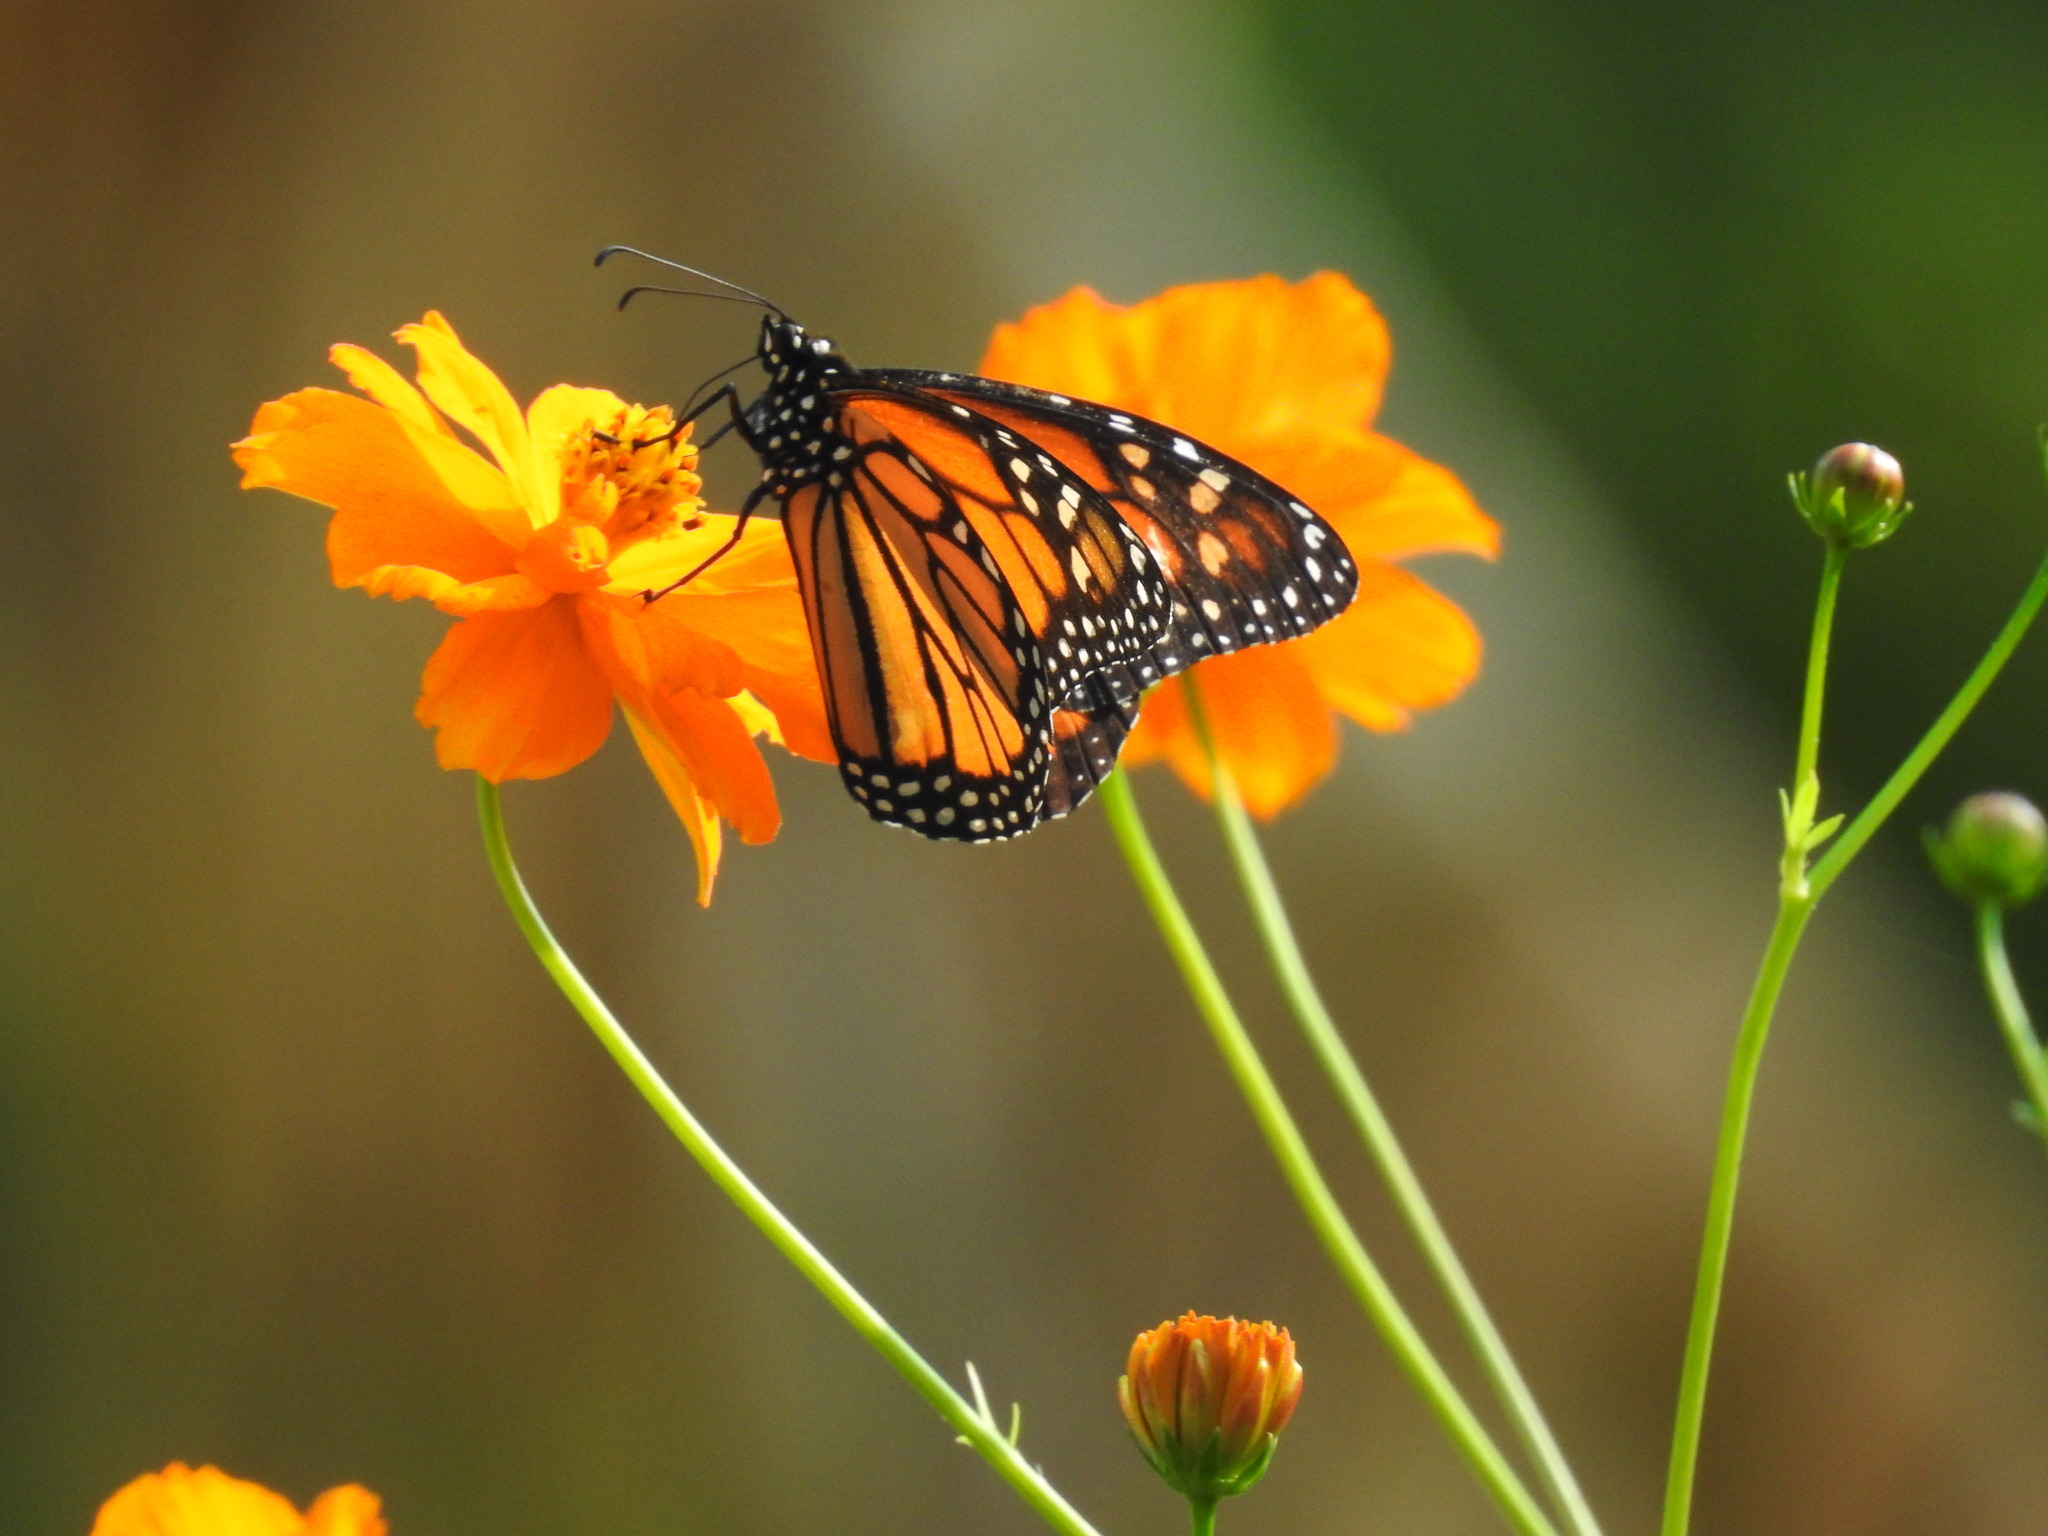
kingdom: Animalia
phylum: Arthropoda
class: Insecta
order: Lepidoptera
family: Nymphalidae
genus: Danaus
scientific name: Danaus plexippus
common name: Monarch
